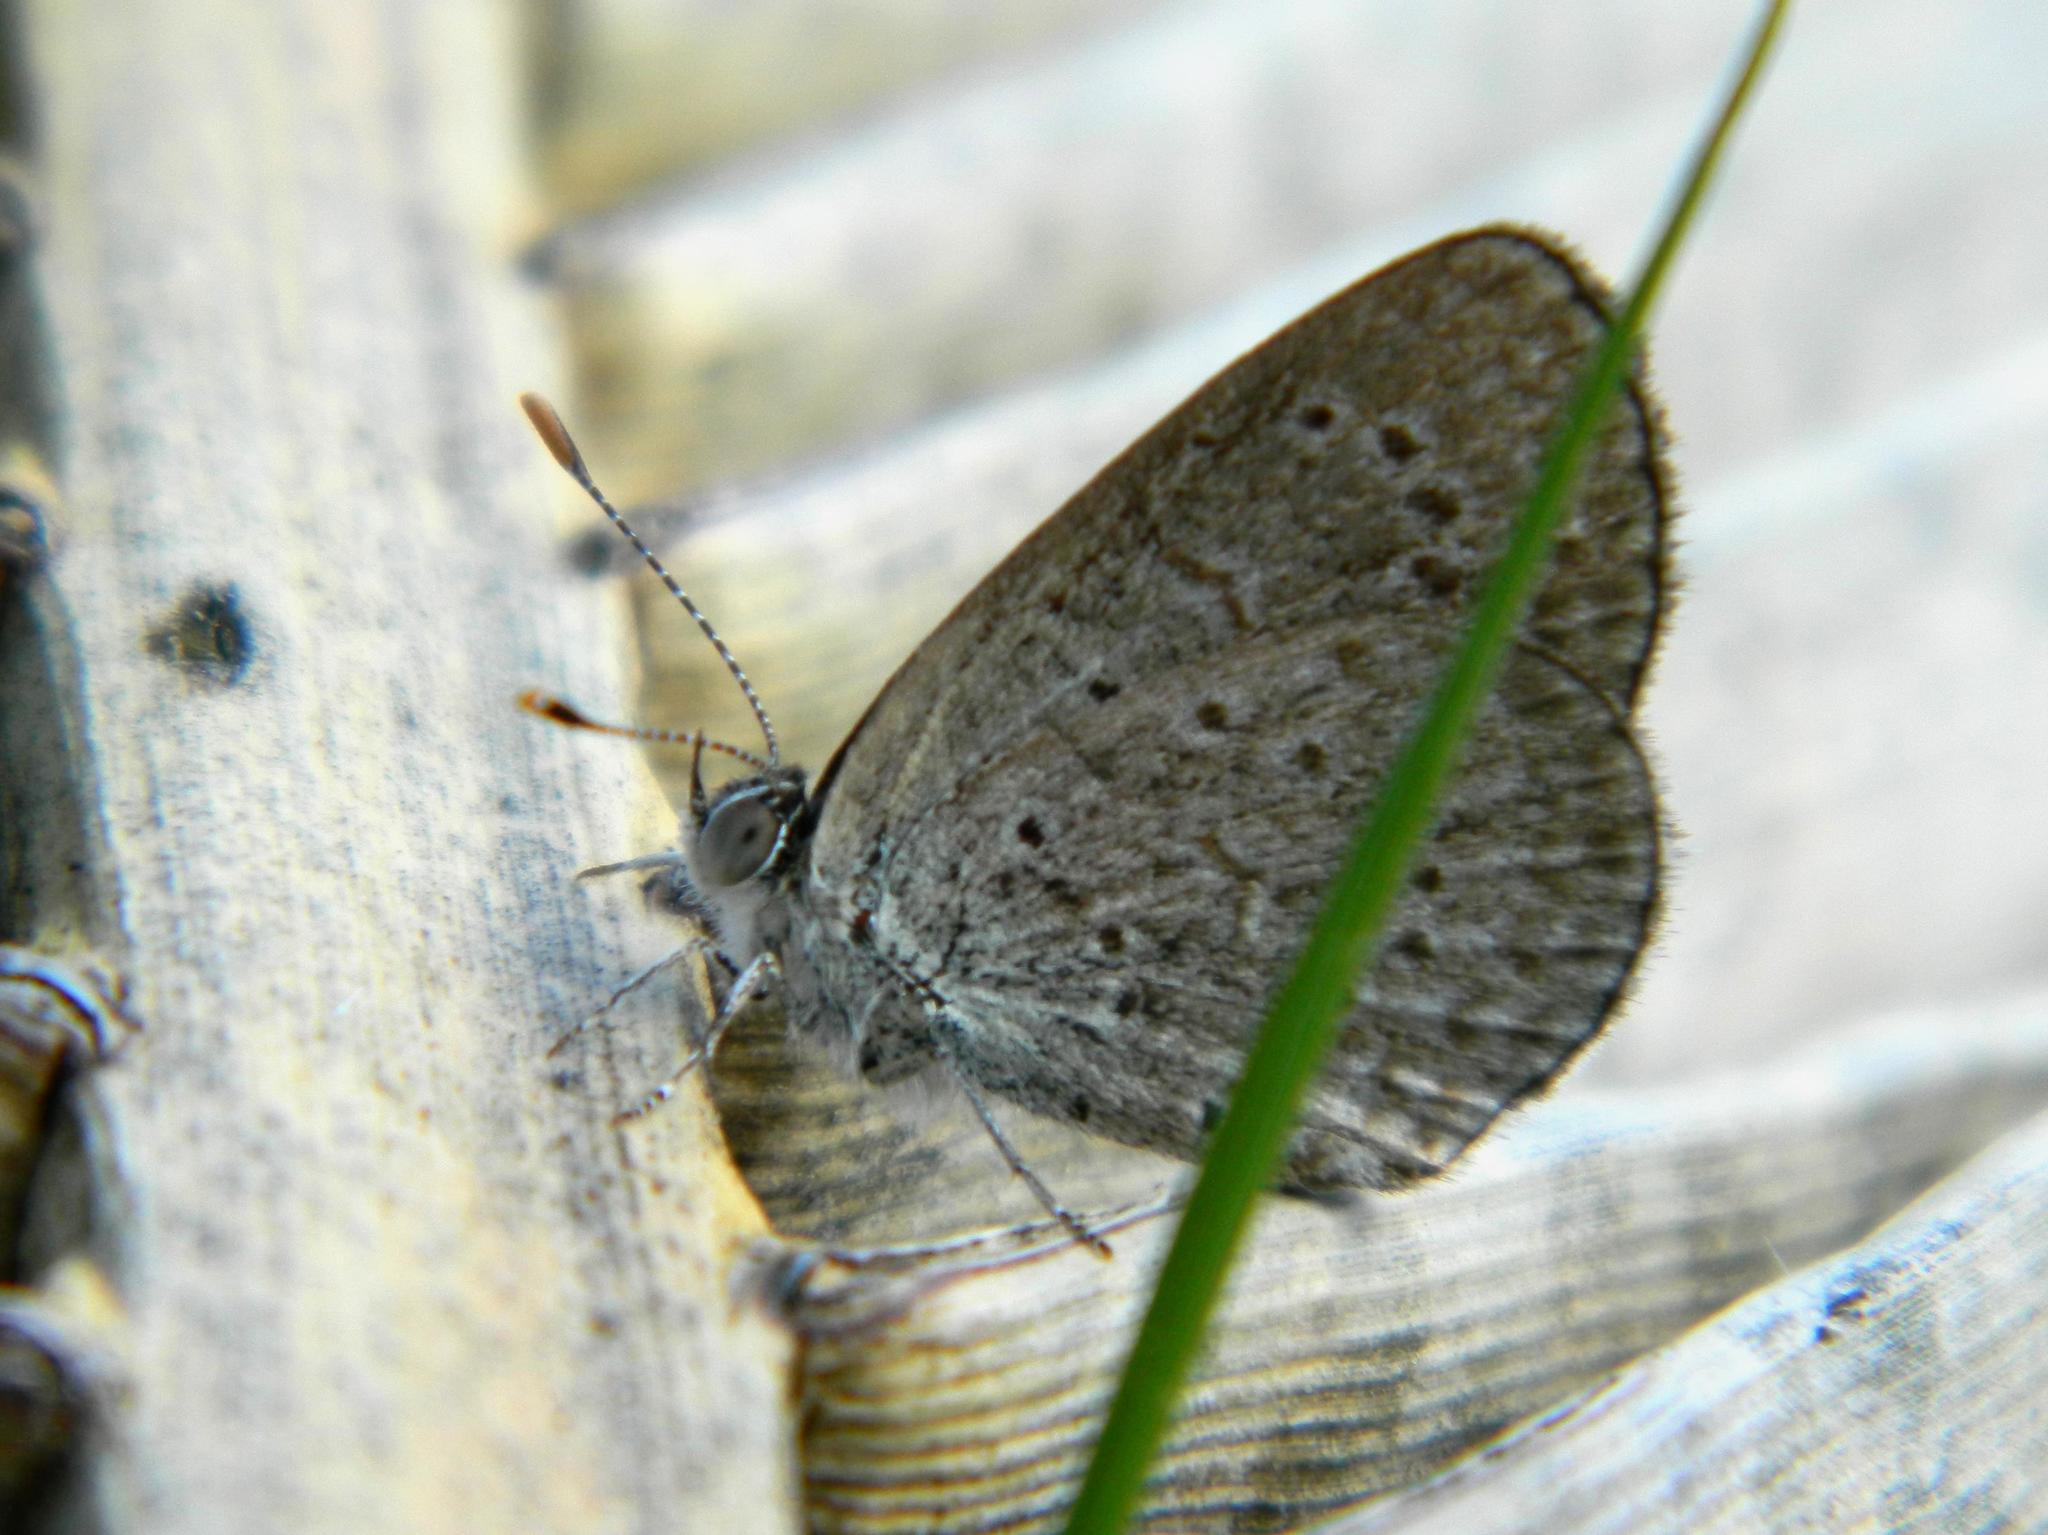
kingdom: Animalia
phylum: Arthropoda
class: Insecta
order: Lepidoptera
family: Lycaenidae
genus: Zizeeria
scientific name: Zizeeria knysna
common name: African grass blue
